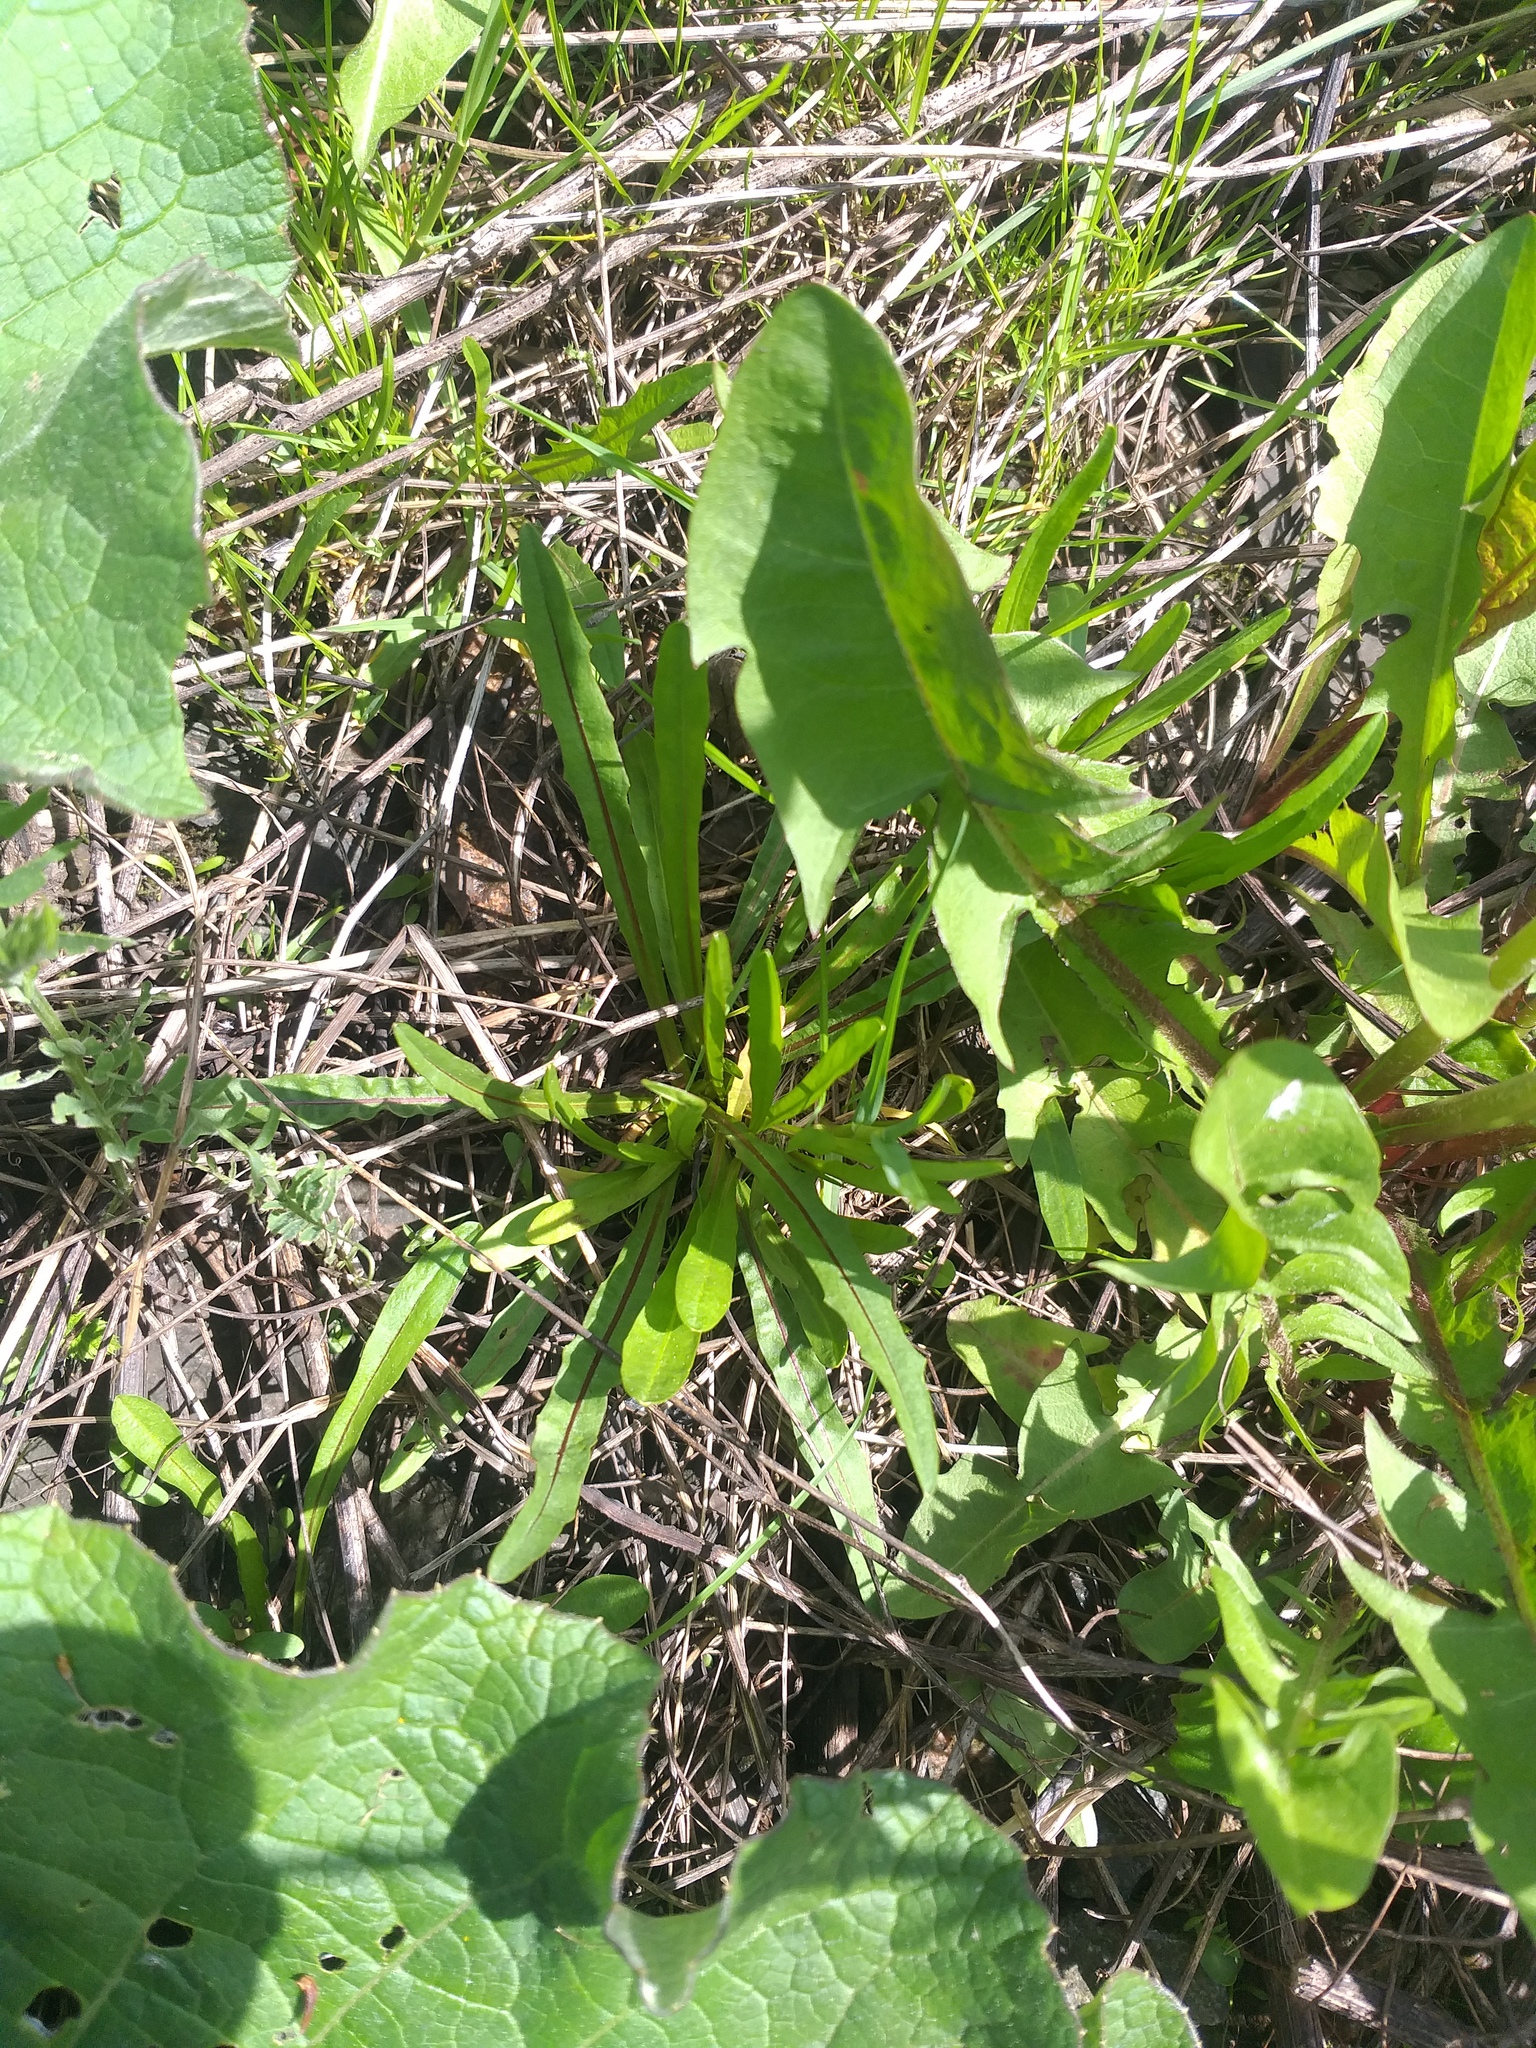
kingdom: Plantae
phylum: Tracheophyta
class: Magnoliopsida
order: Asterales
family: Asteraceae
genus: Scorzoneroides
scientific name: Scorzoneroides autumnalis
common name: Autumn hawkbit
